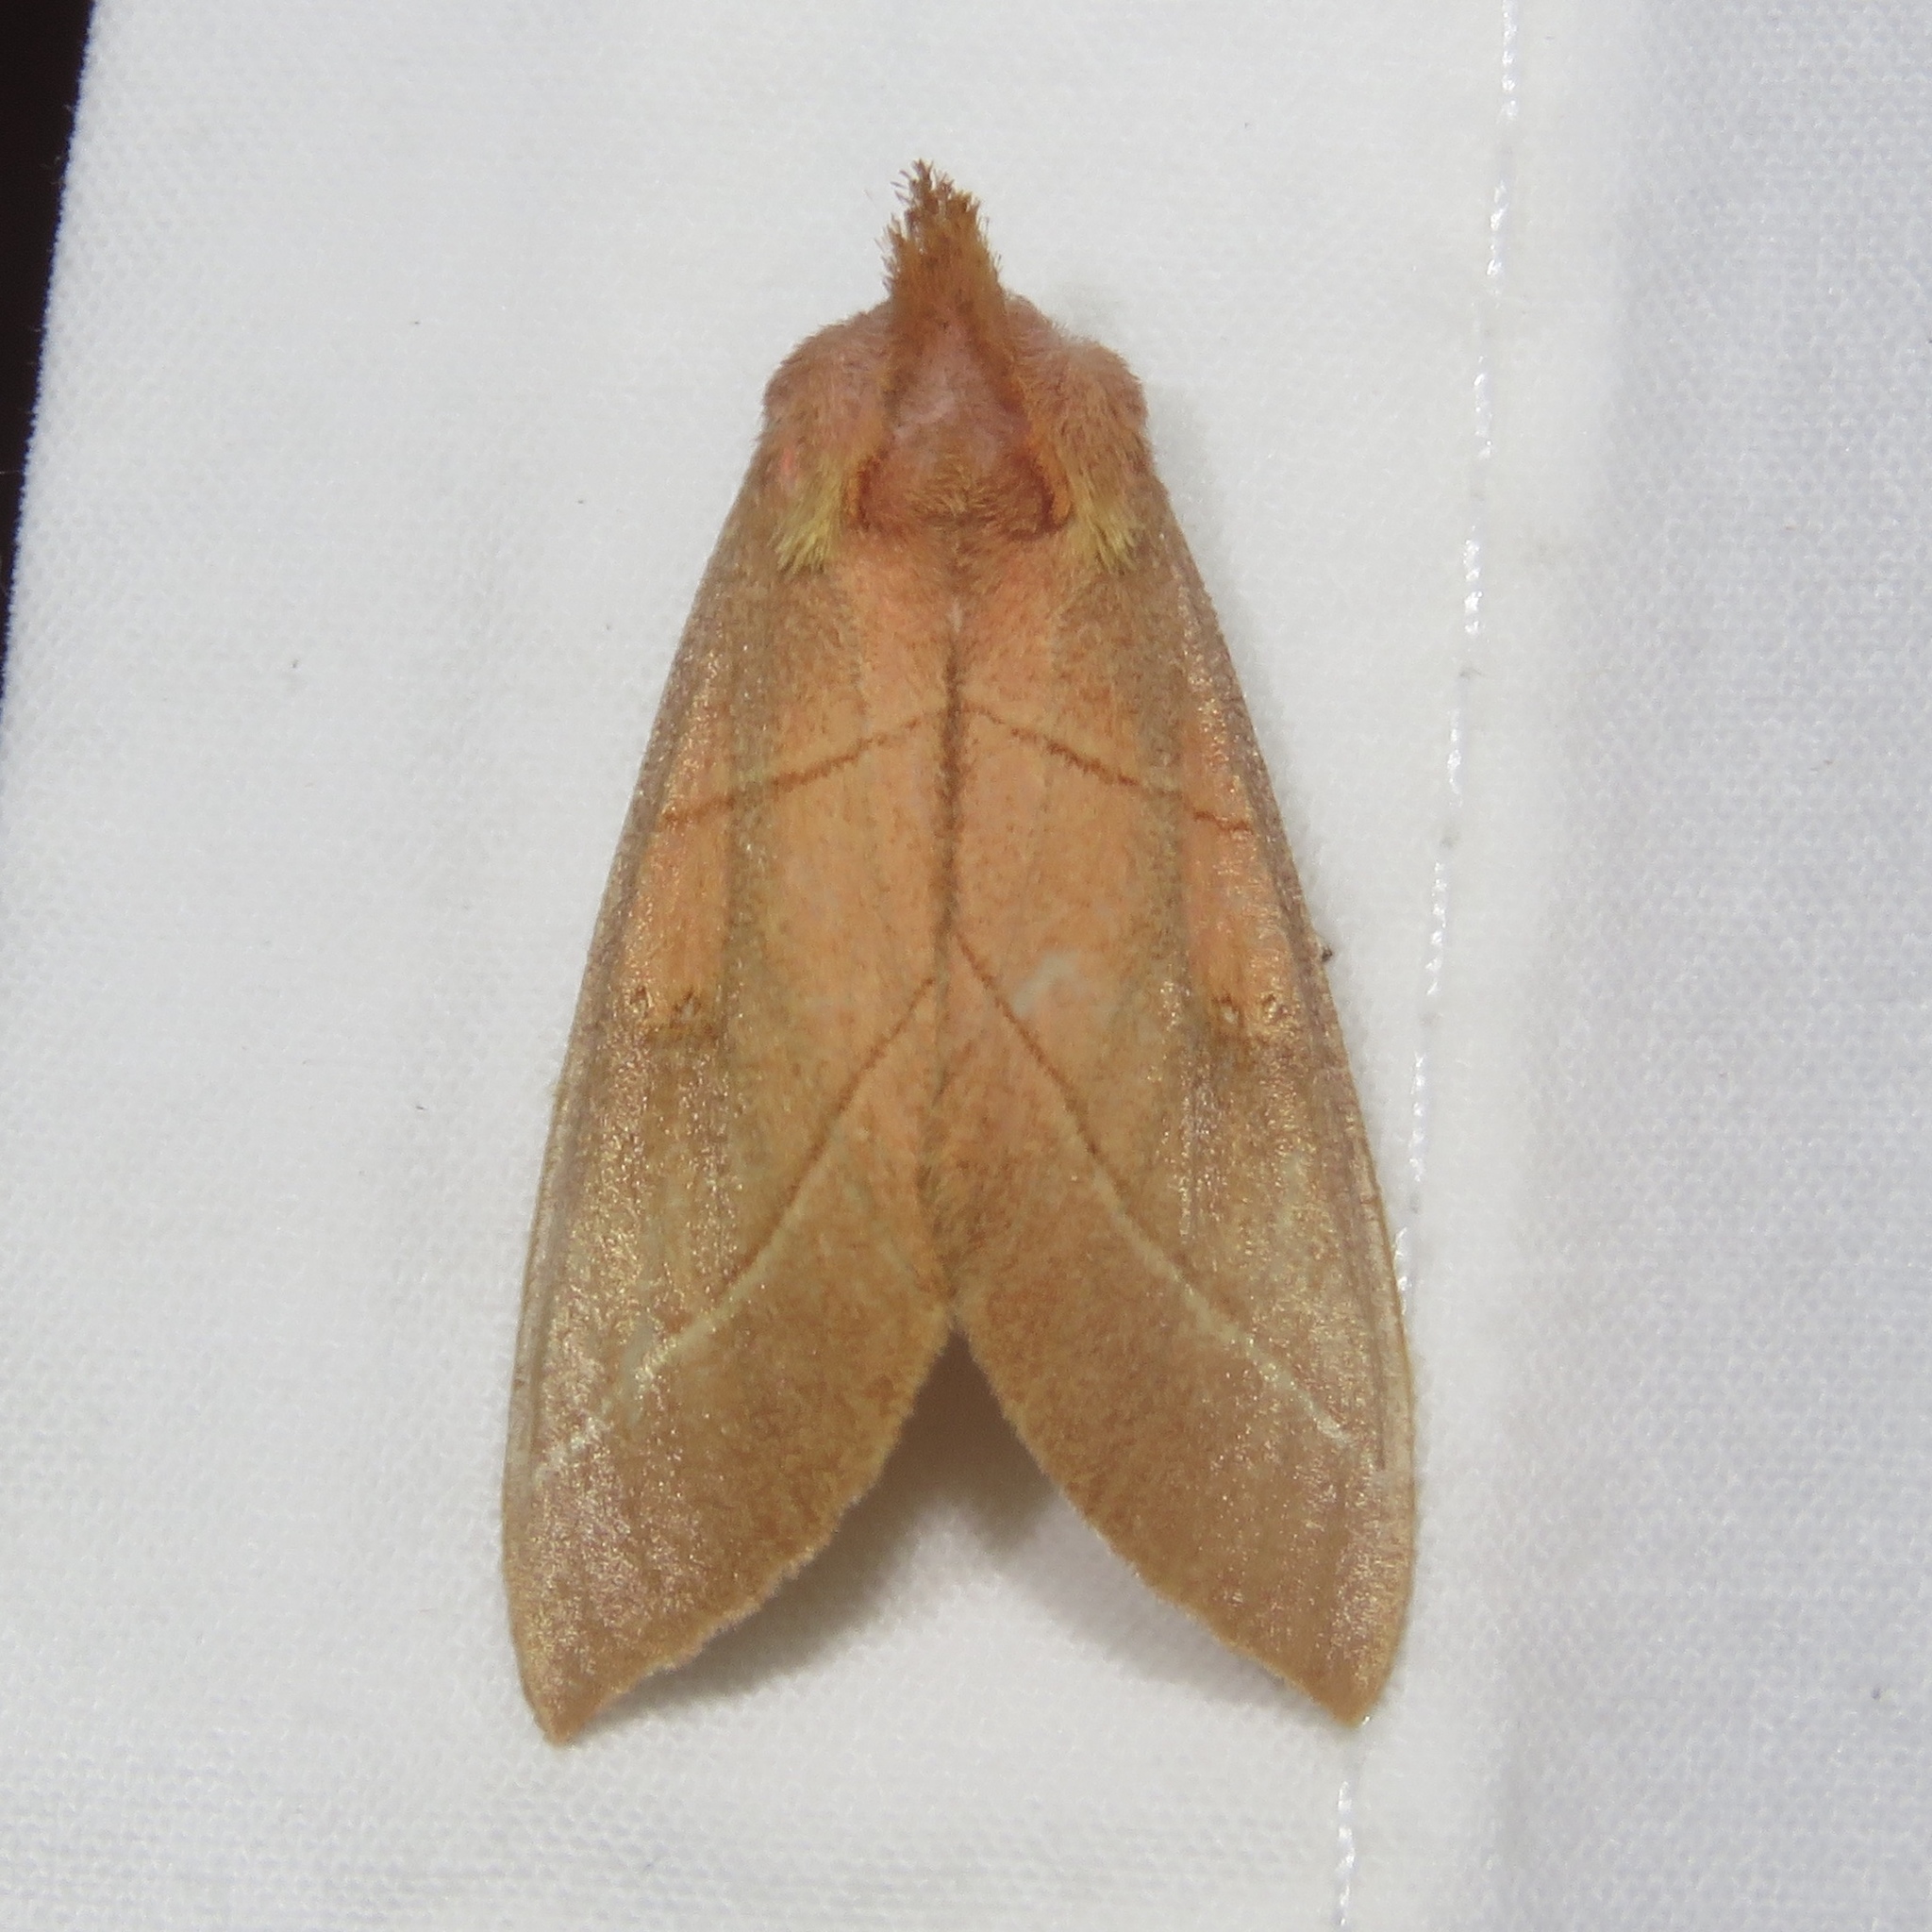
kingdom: Animalia
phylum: Arthropoda
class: Insecta
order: Lepidoptera
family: Notodontidae
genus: Nadata
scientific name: Nadata gibbosa
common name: White-dotted prominent
